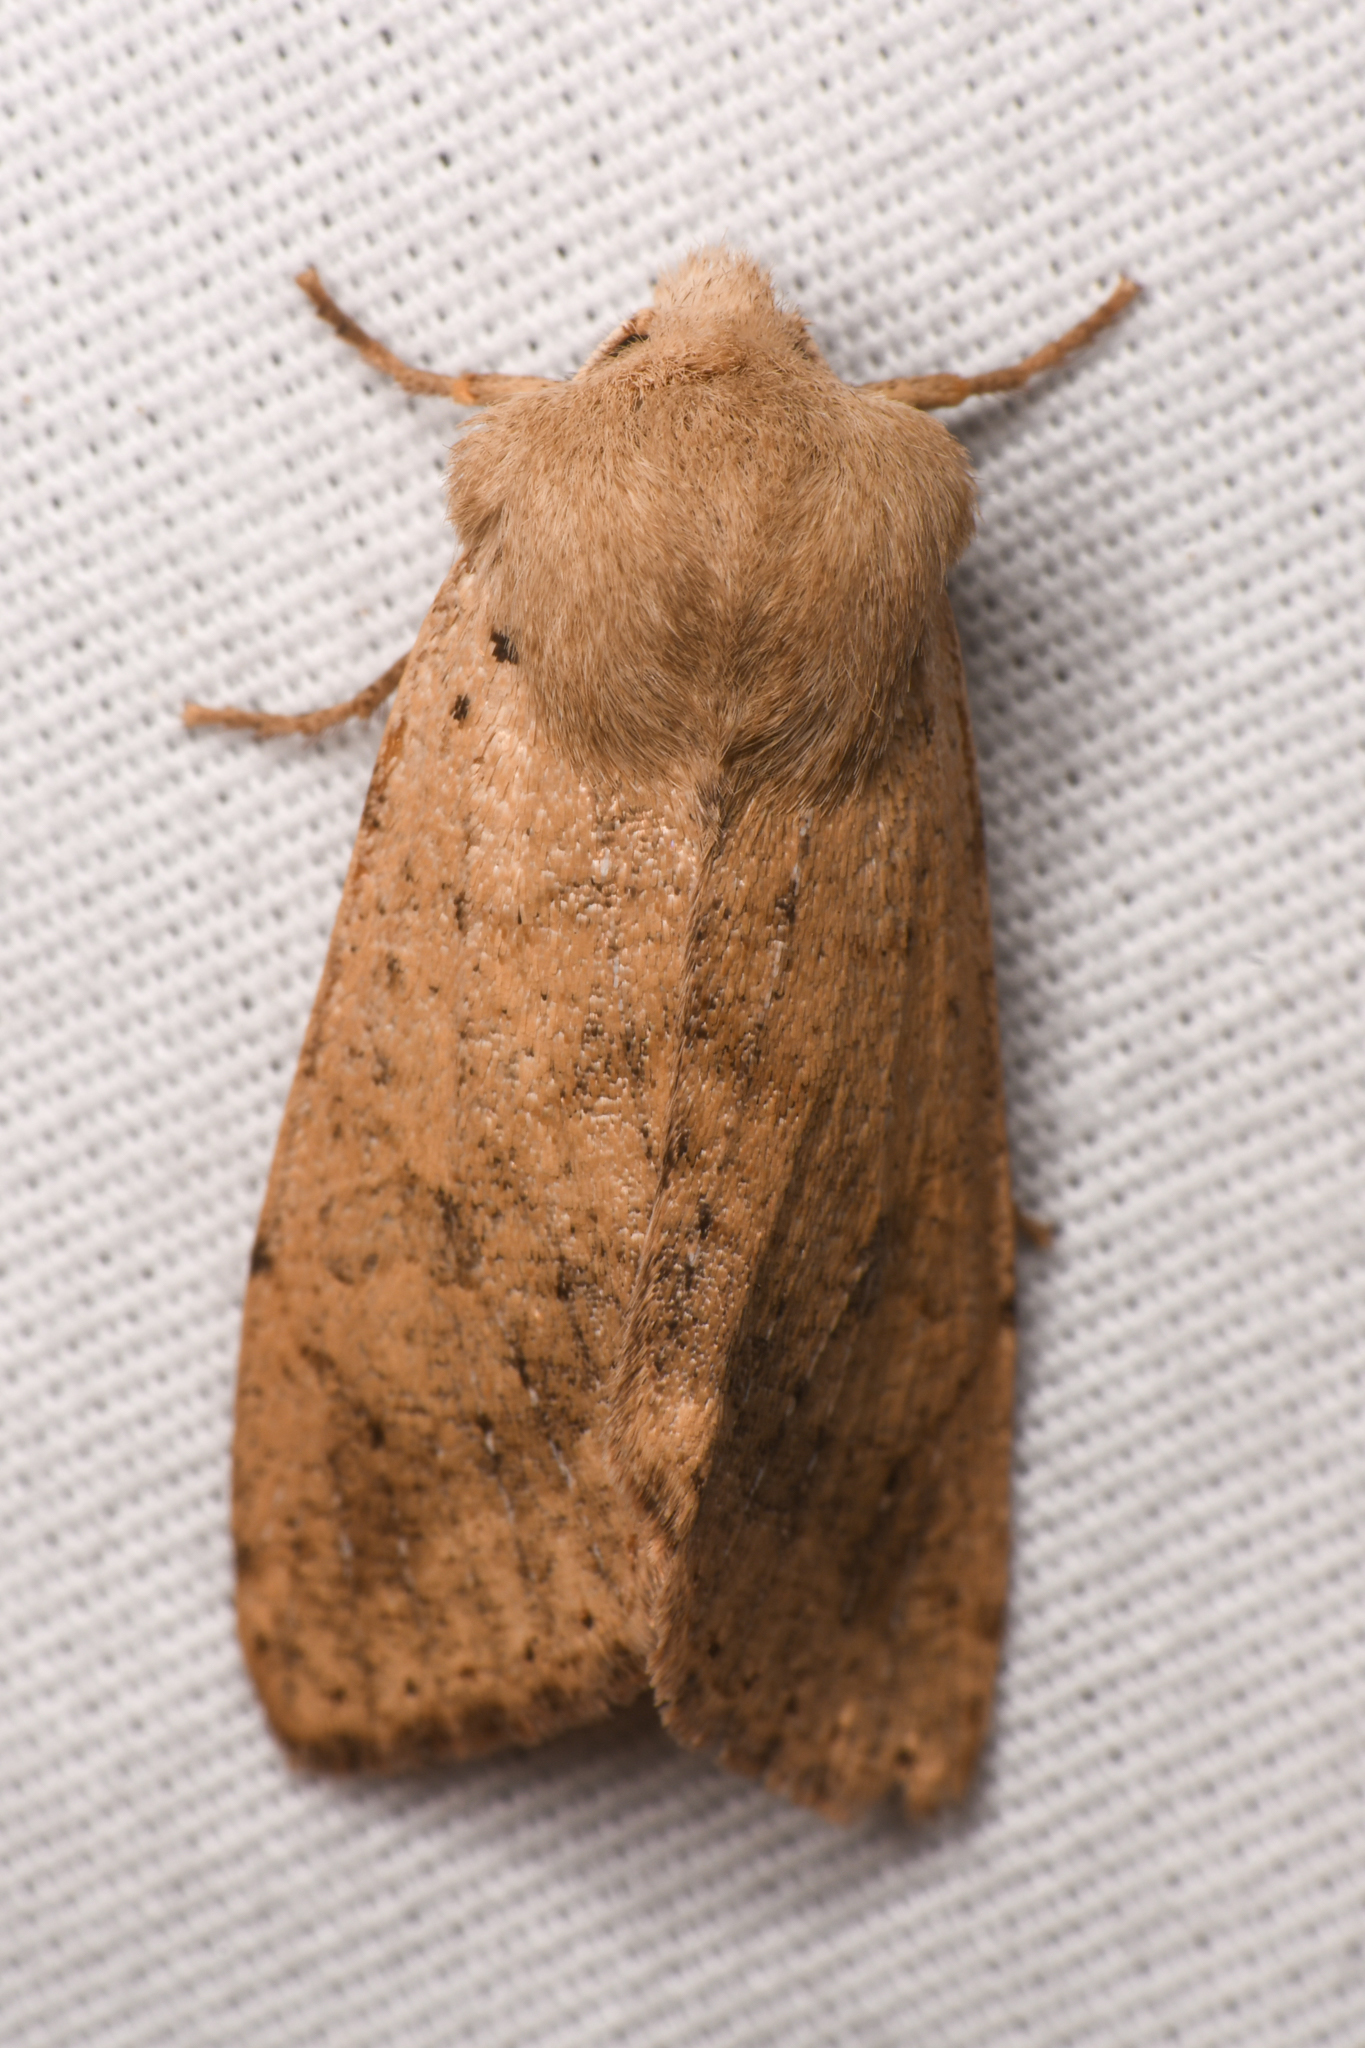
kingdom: Animalia
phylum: Arthropoda
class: Insecta
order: Lepidoptera
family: Noctuidae
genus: Orthosia
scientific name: Orthosia pacifica
